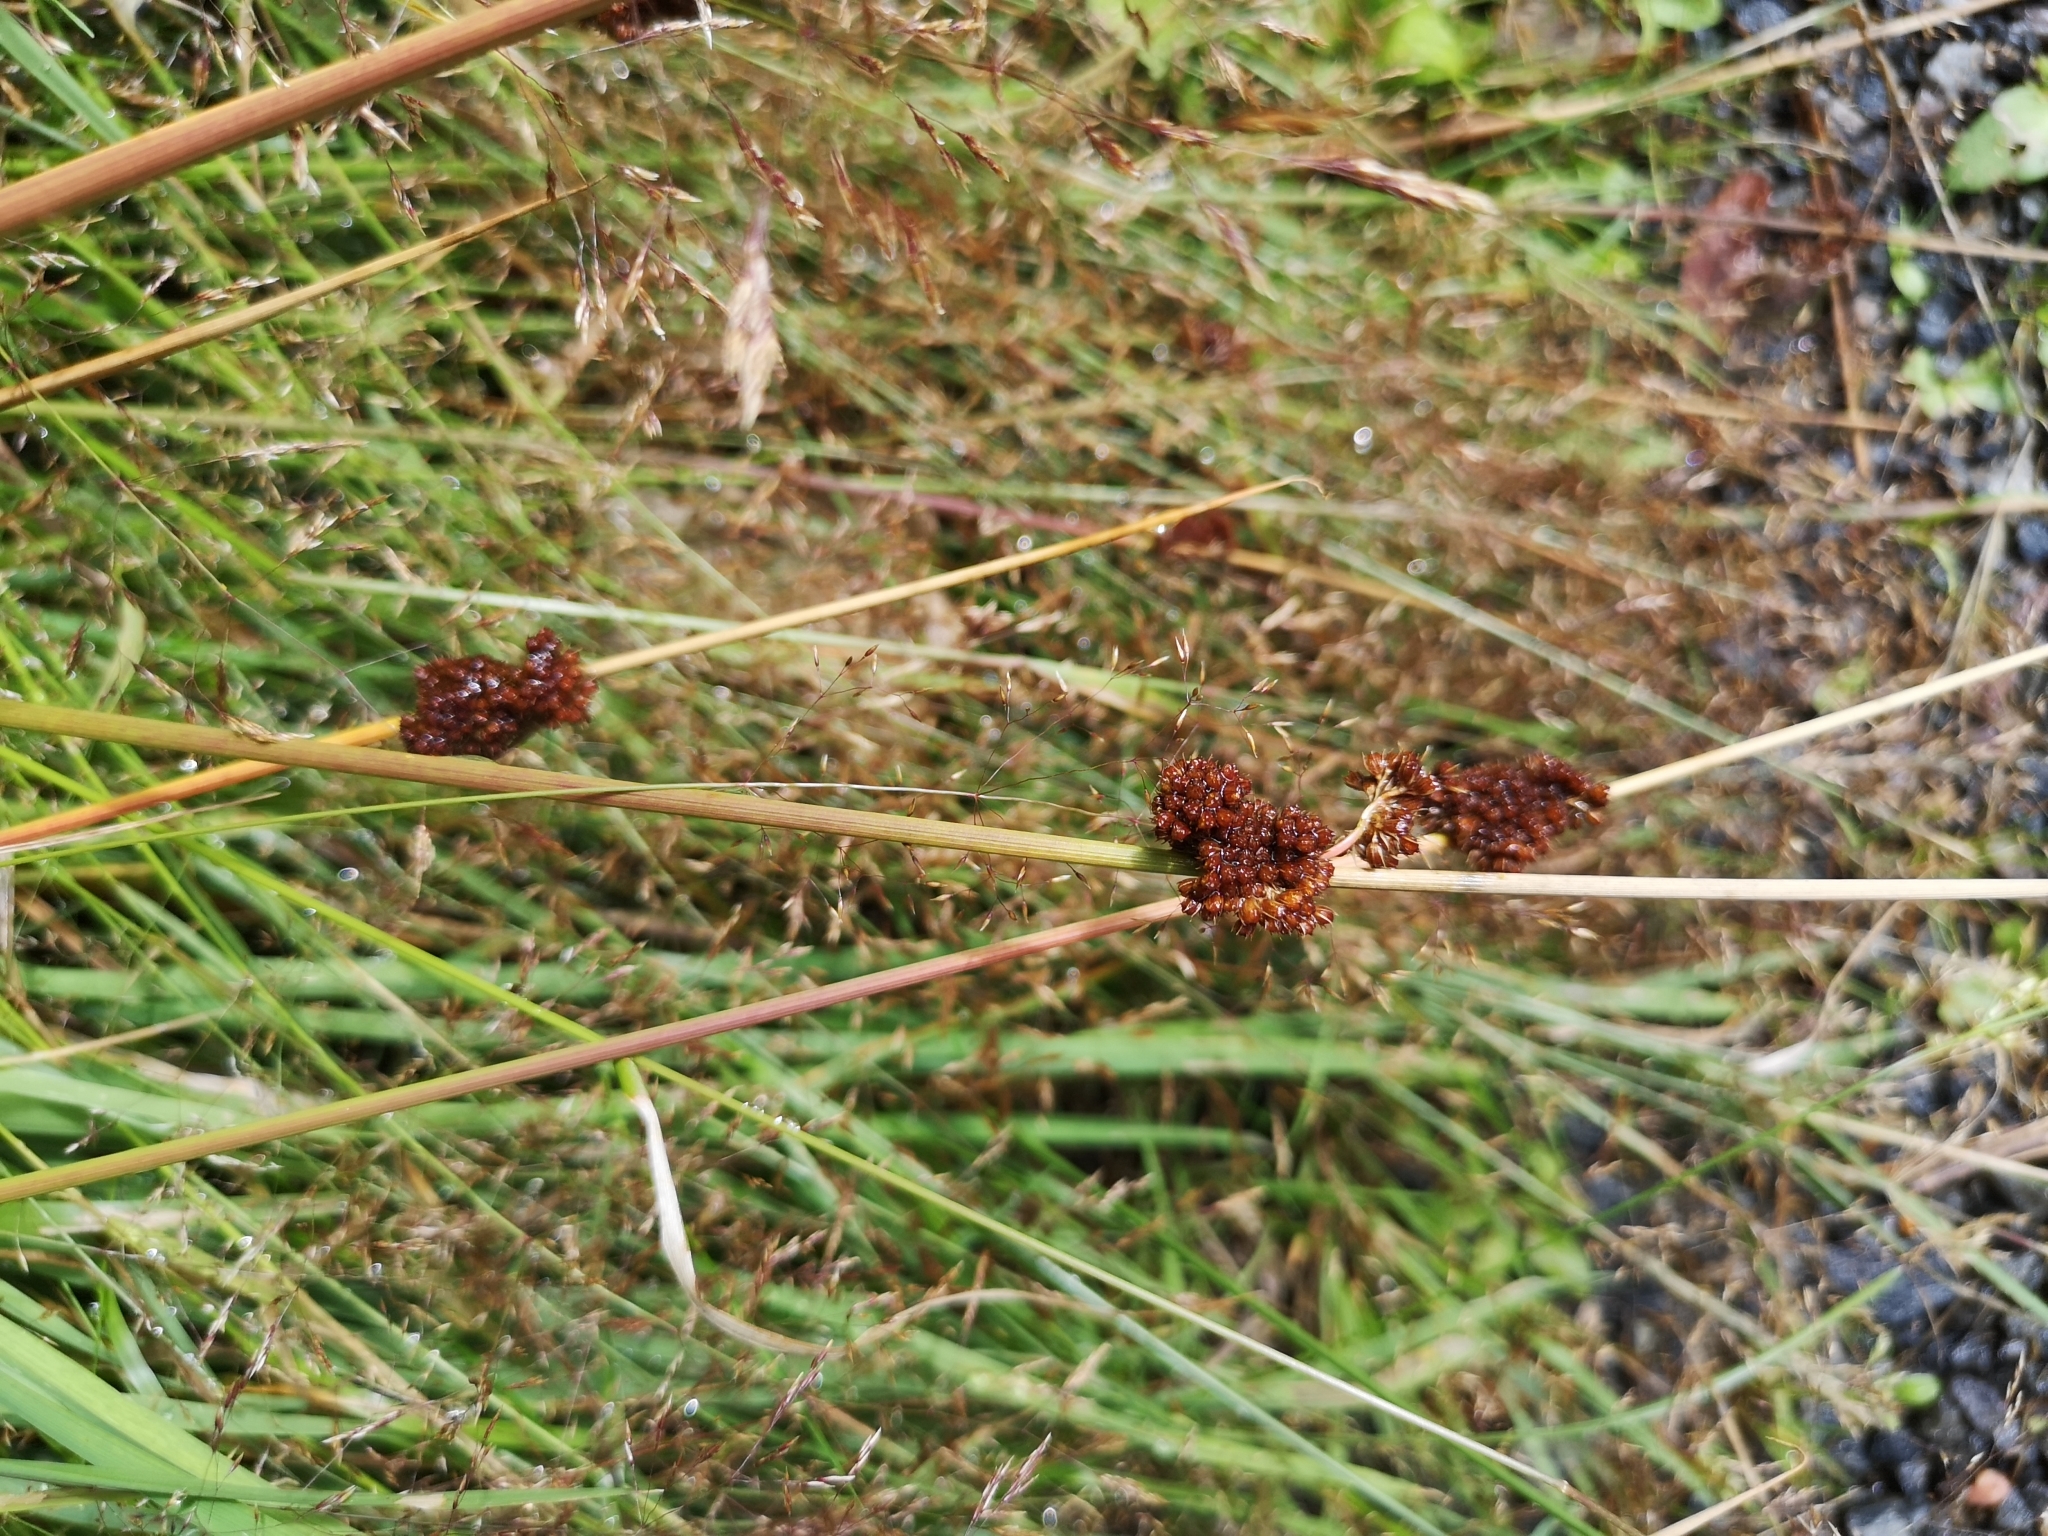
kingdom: Plantae
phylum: Tracheophyta
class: Liliopsida
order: Poales
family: Juncaceae
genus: Juncus
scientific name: Juncus conglomeratus
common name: Compact rush
